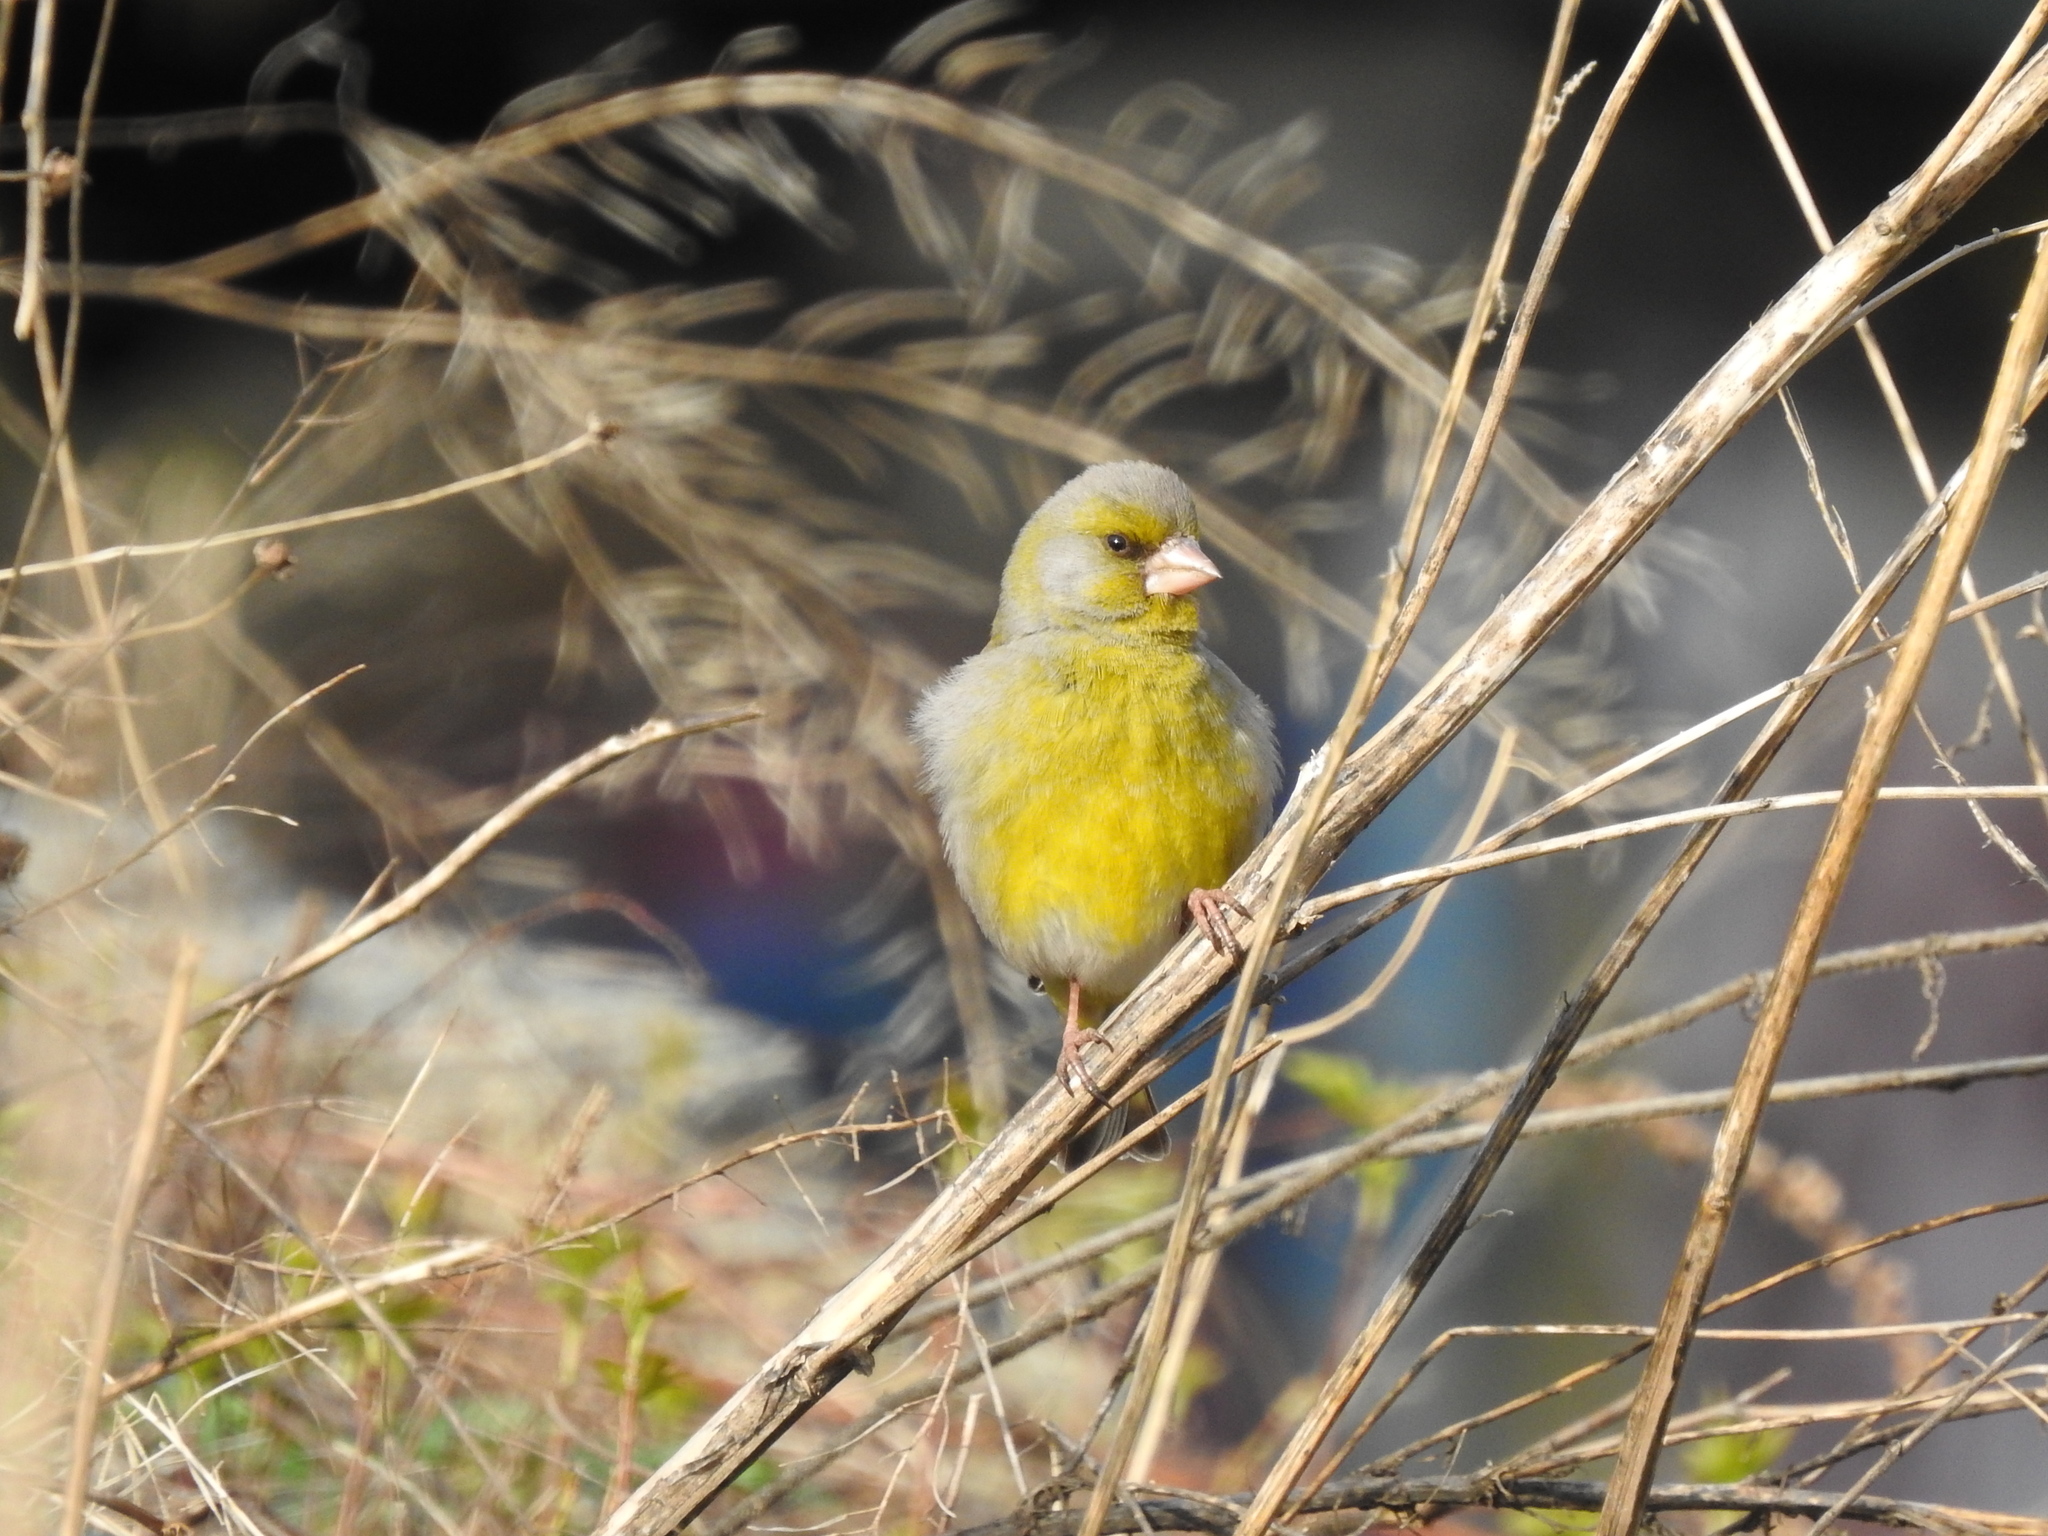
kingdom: Plantae
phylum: Tracheophyta
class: Liliopsida
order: Poales
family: Poaceae
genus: Chloris
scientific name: Chloris chloris
